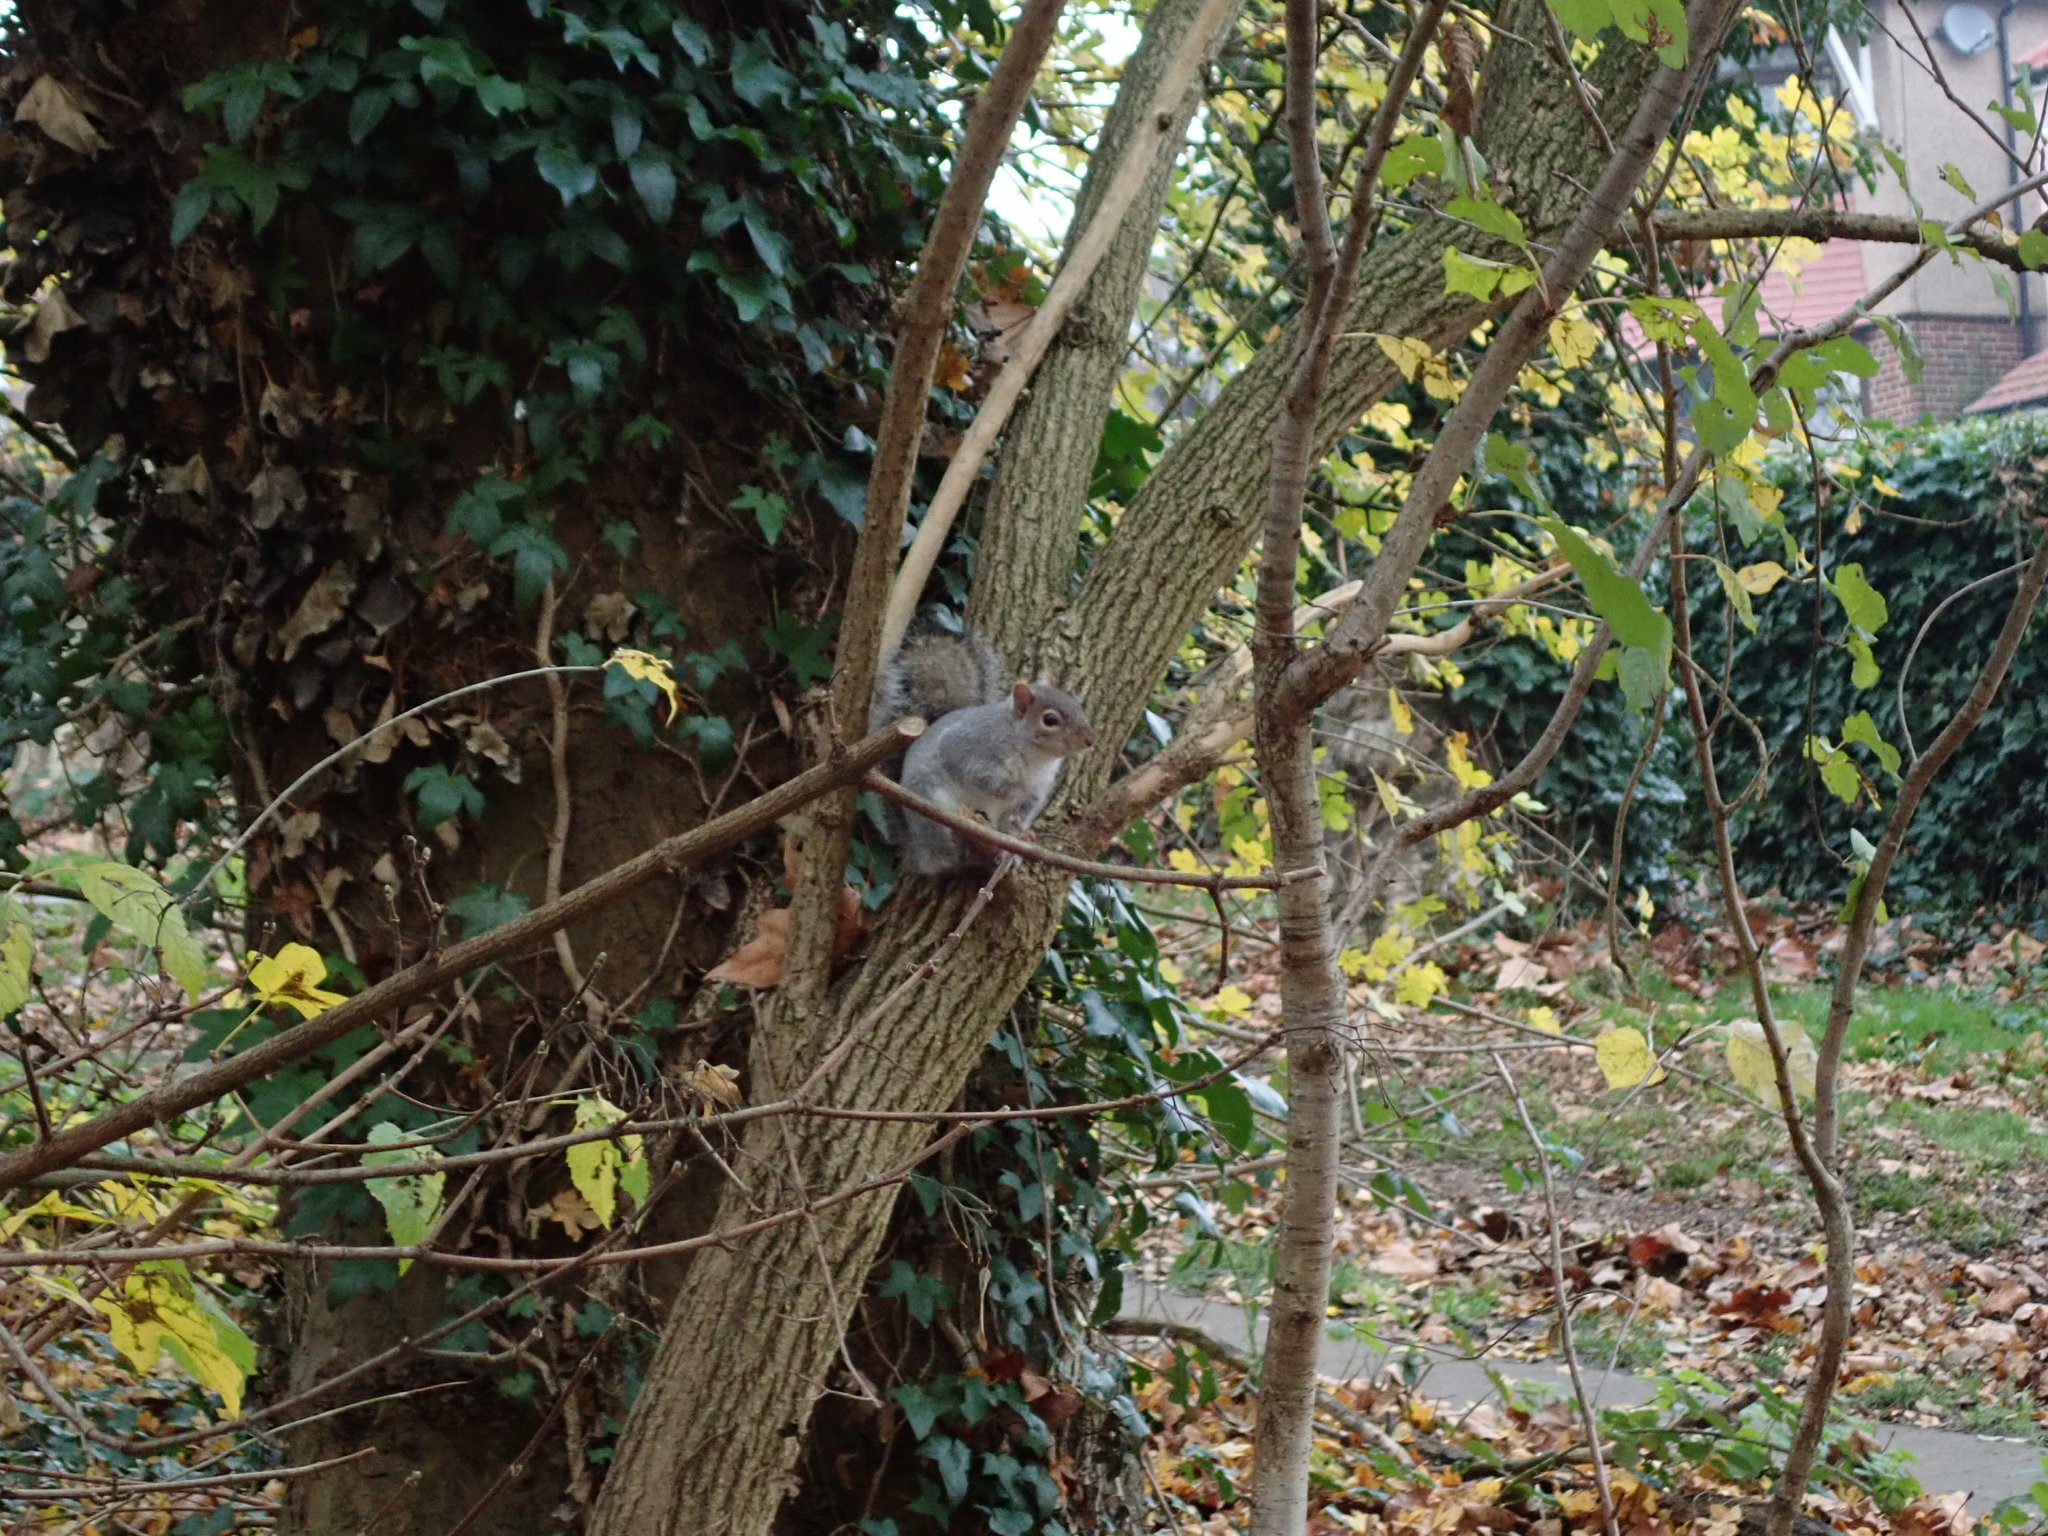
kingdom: Animalia
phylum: Chordata
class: Mammalia
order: Rodentia
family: Sciuridae
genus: Sciurus
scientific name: Sciurus carolinensis
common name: Eastern gray squirrel
